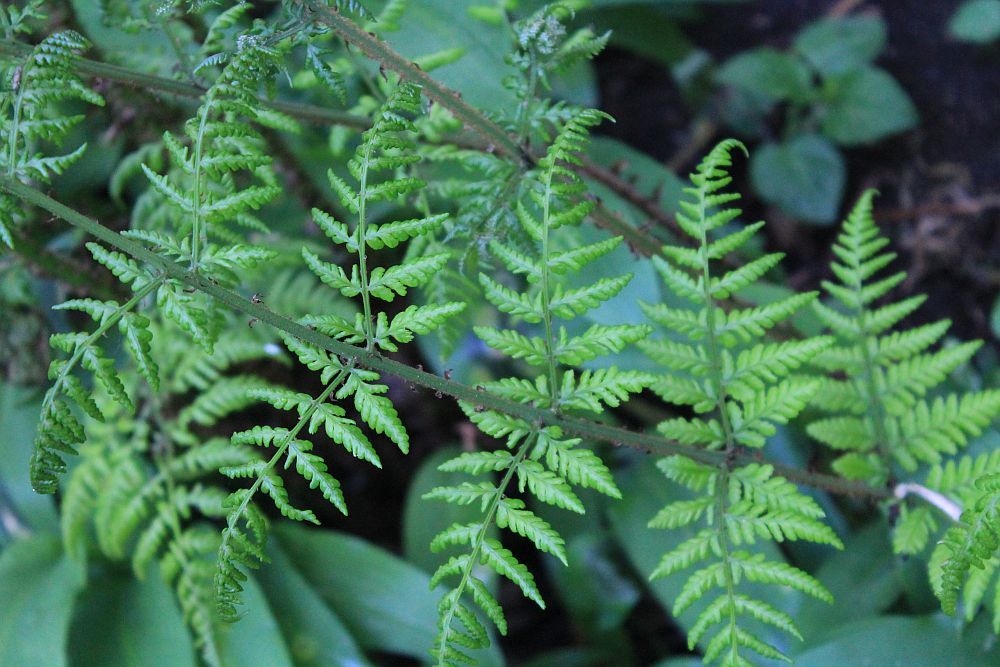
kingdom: Plantae
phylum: Tracheophyta
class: Polypodiopsida
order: Polypodiales
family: Dryopteridaceae
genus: Dryopteris
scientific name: Dryopteris dilatata
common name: Broad buckler-fern
